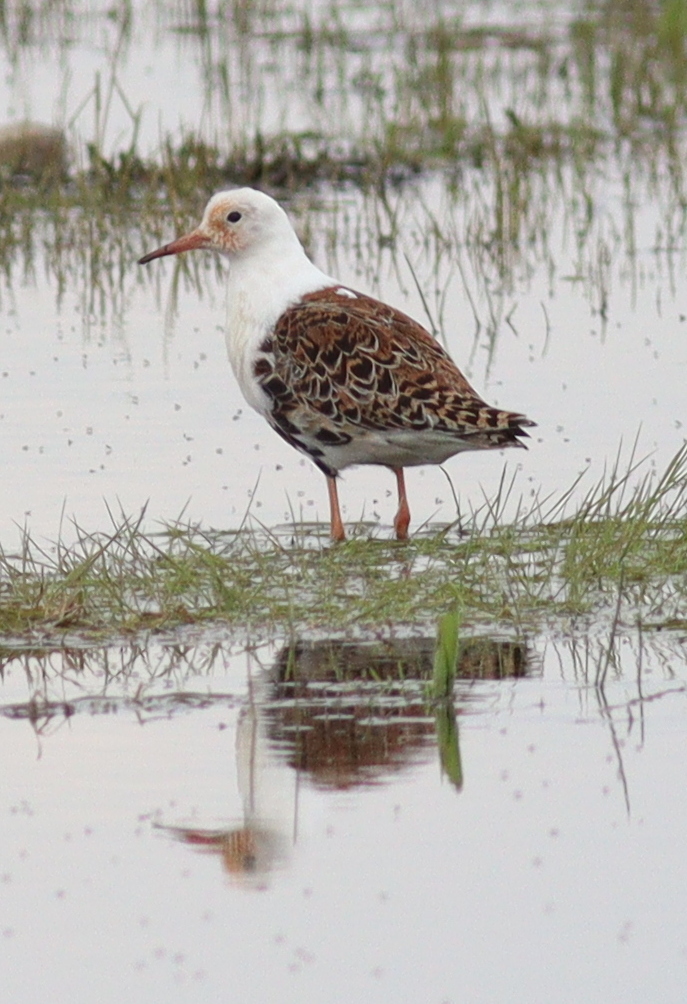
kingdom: Animalia
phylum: Chordata
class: Aves
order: Charadriiformes
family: Scolopacidae
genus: Calidris
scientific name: Calidris pugnax
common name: Ruff
